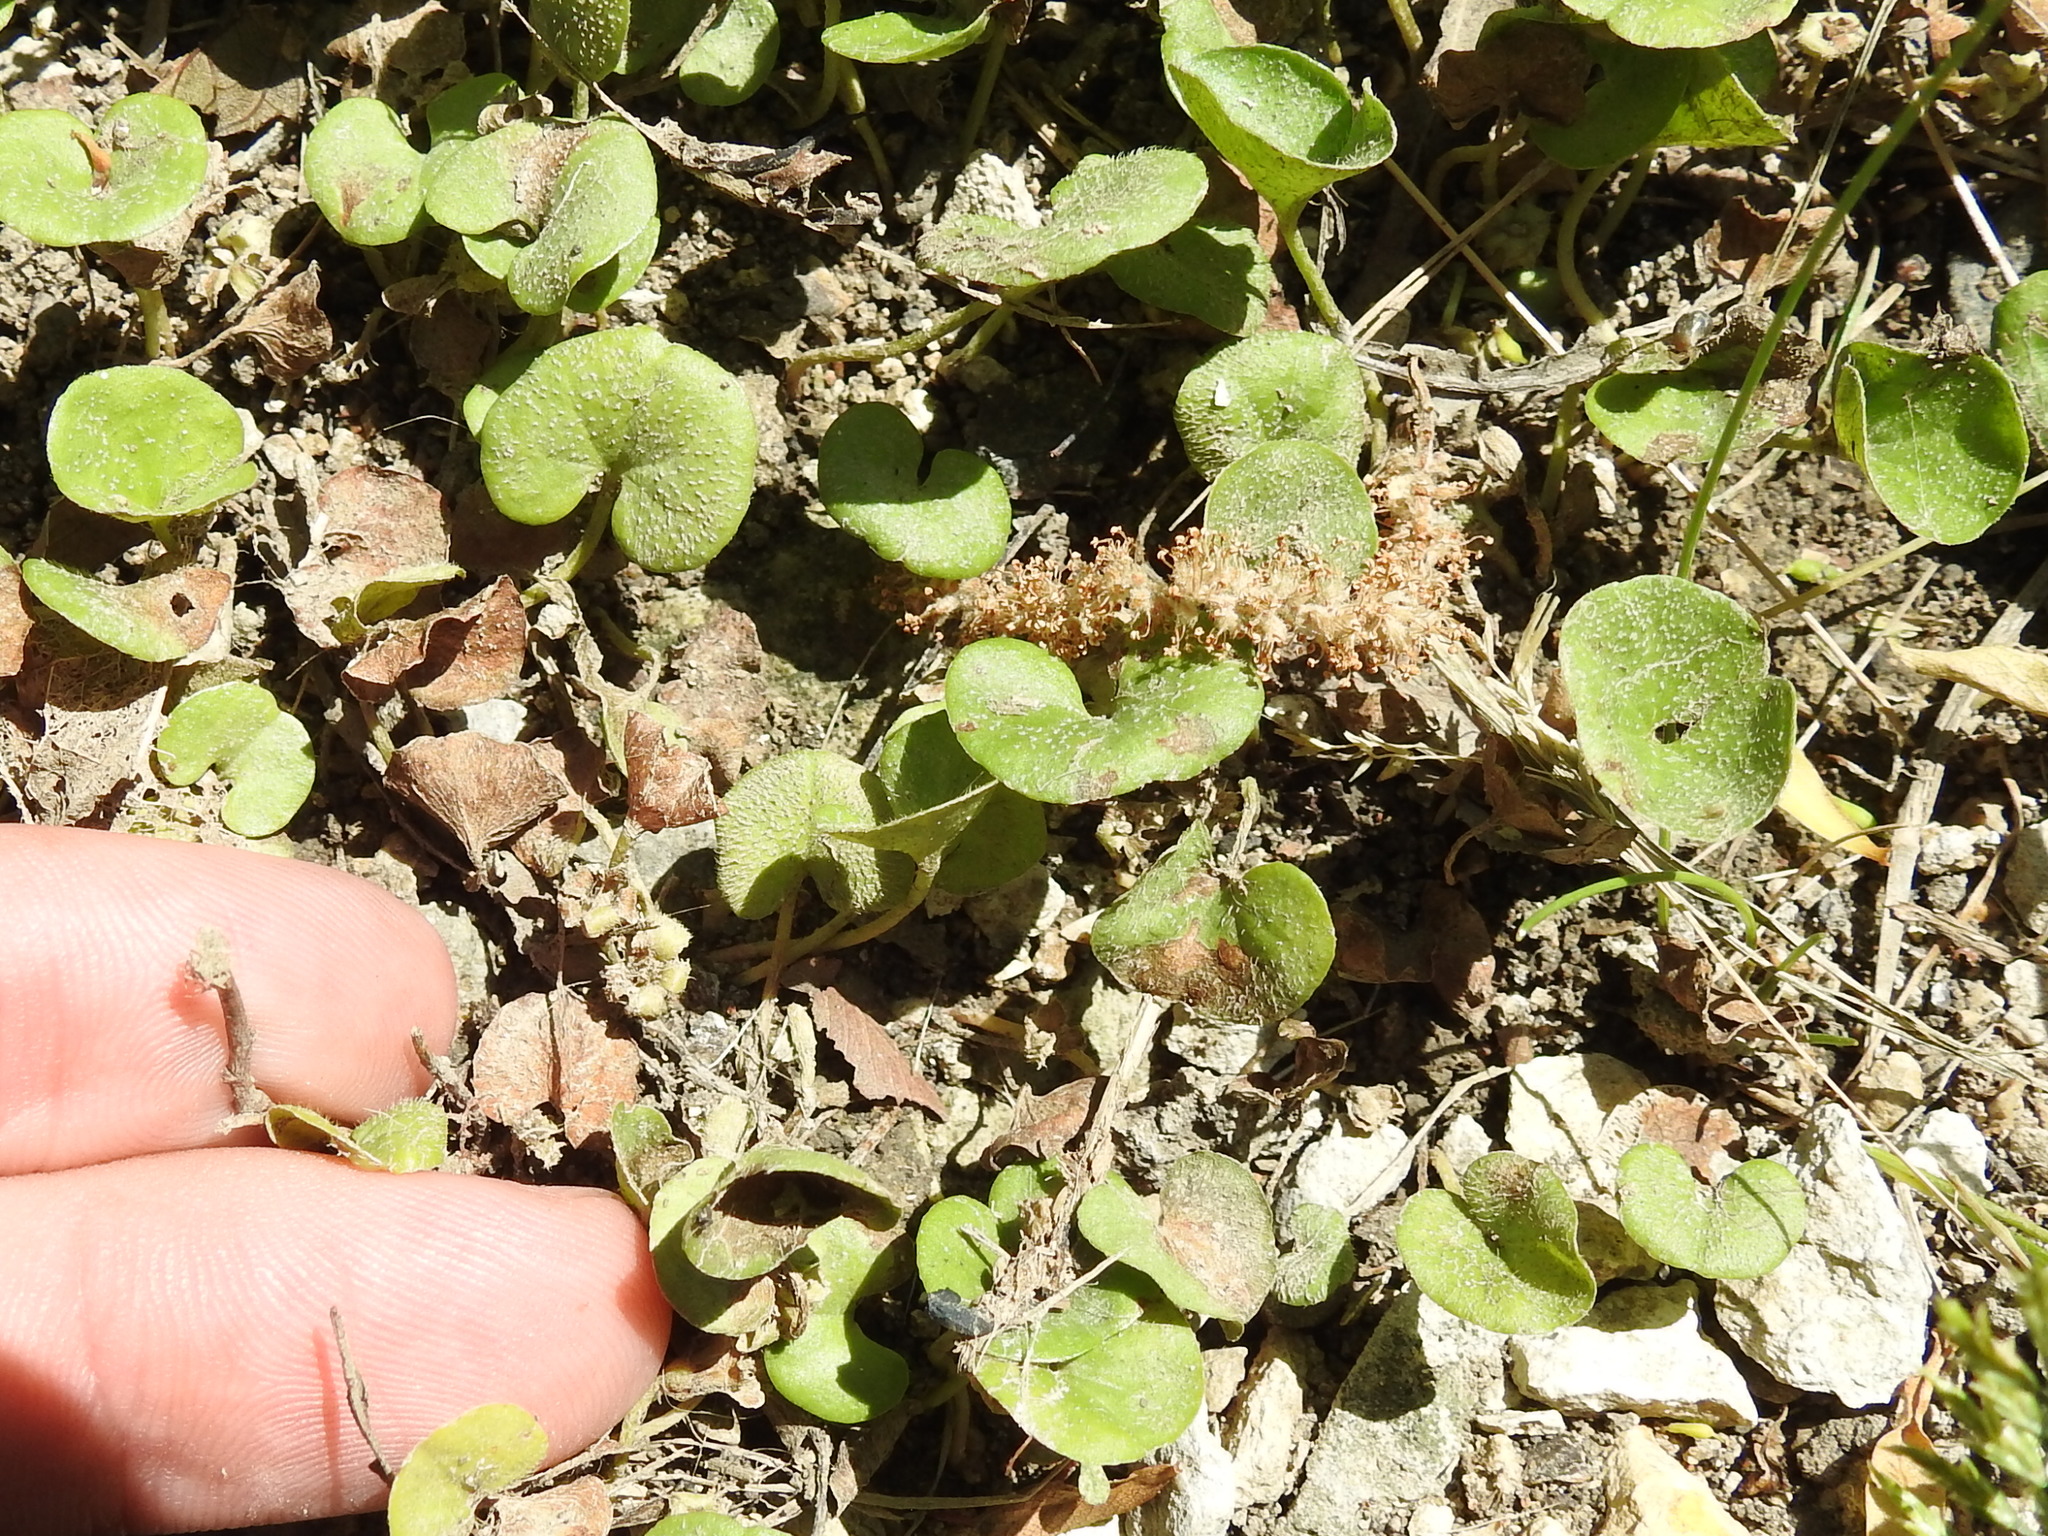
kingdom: Plantae
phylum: Tracheophyta
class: Magnoliopsida
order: Solanales
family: Convolvulaceae
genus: Dichondra
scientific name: Dichondra carolinensis
